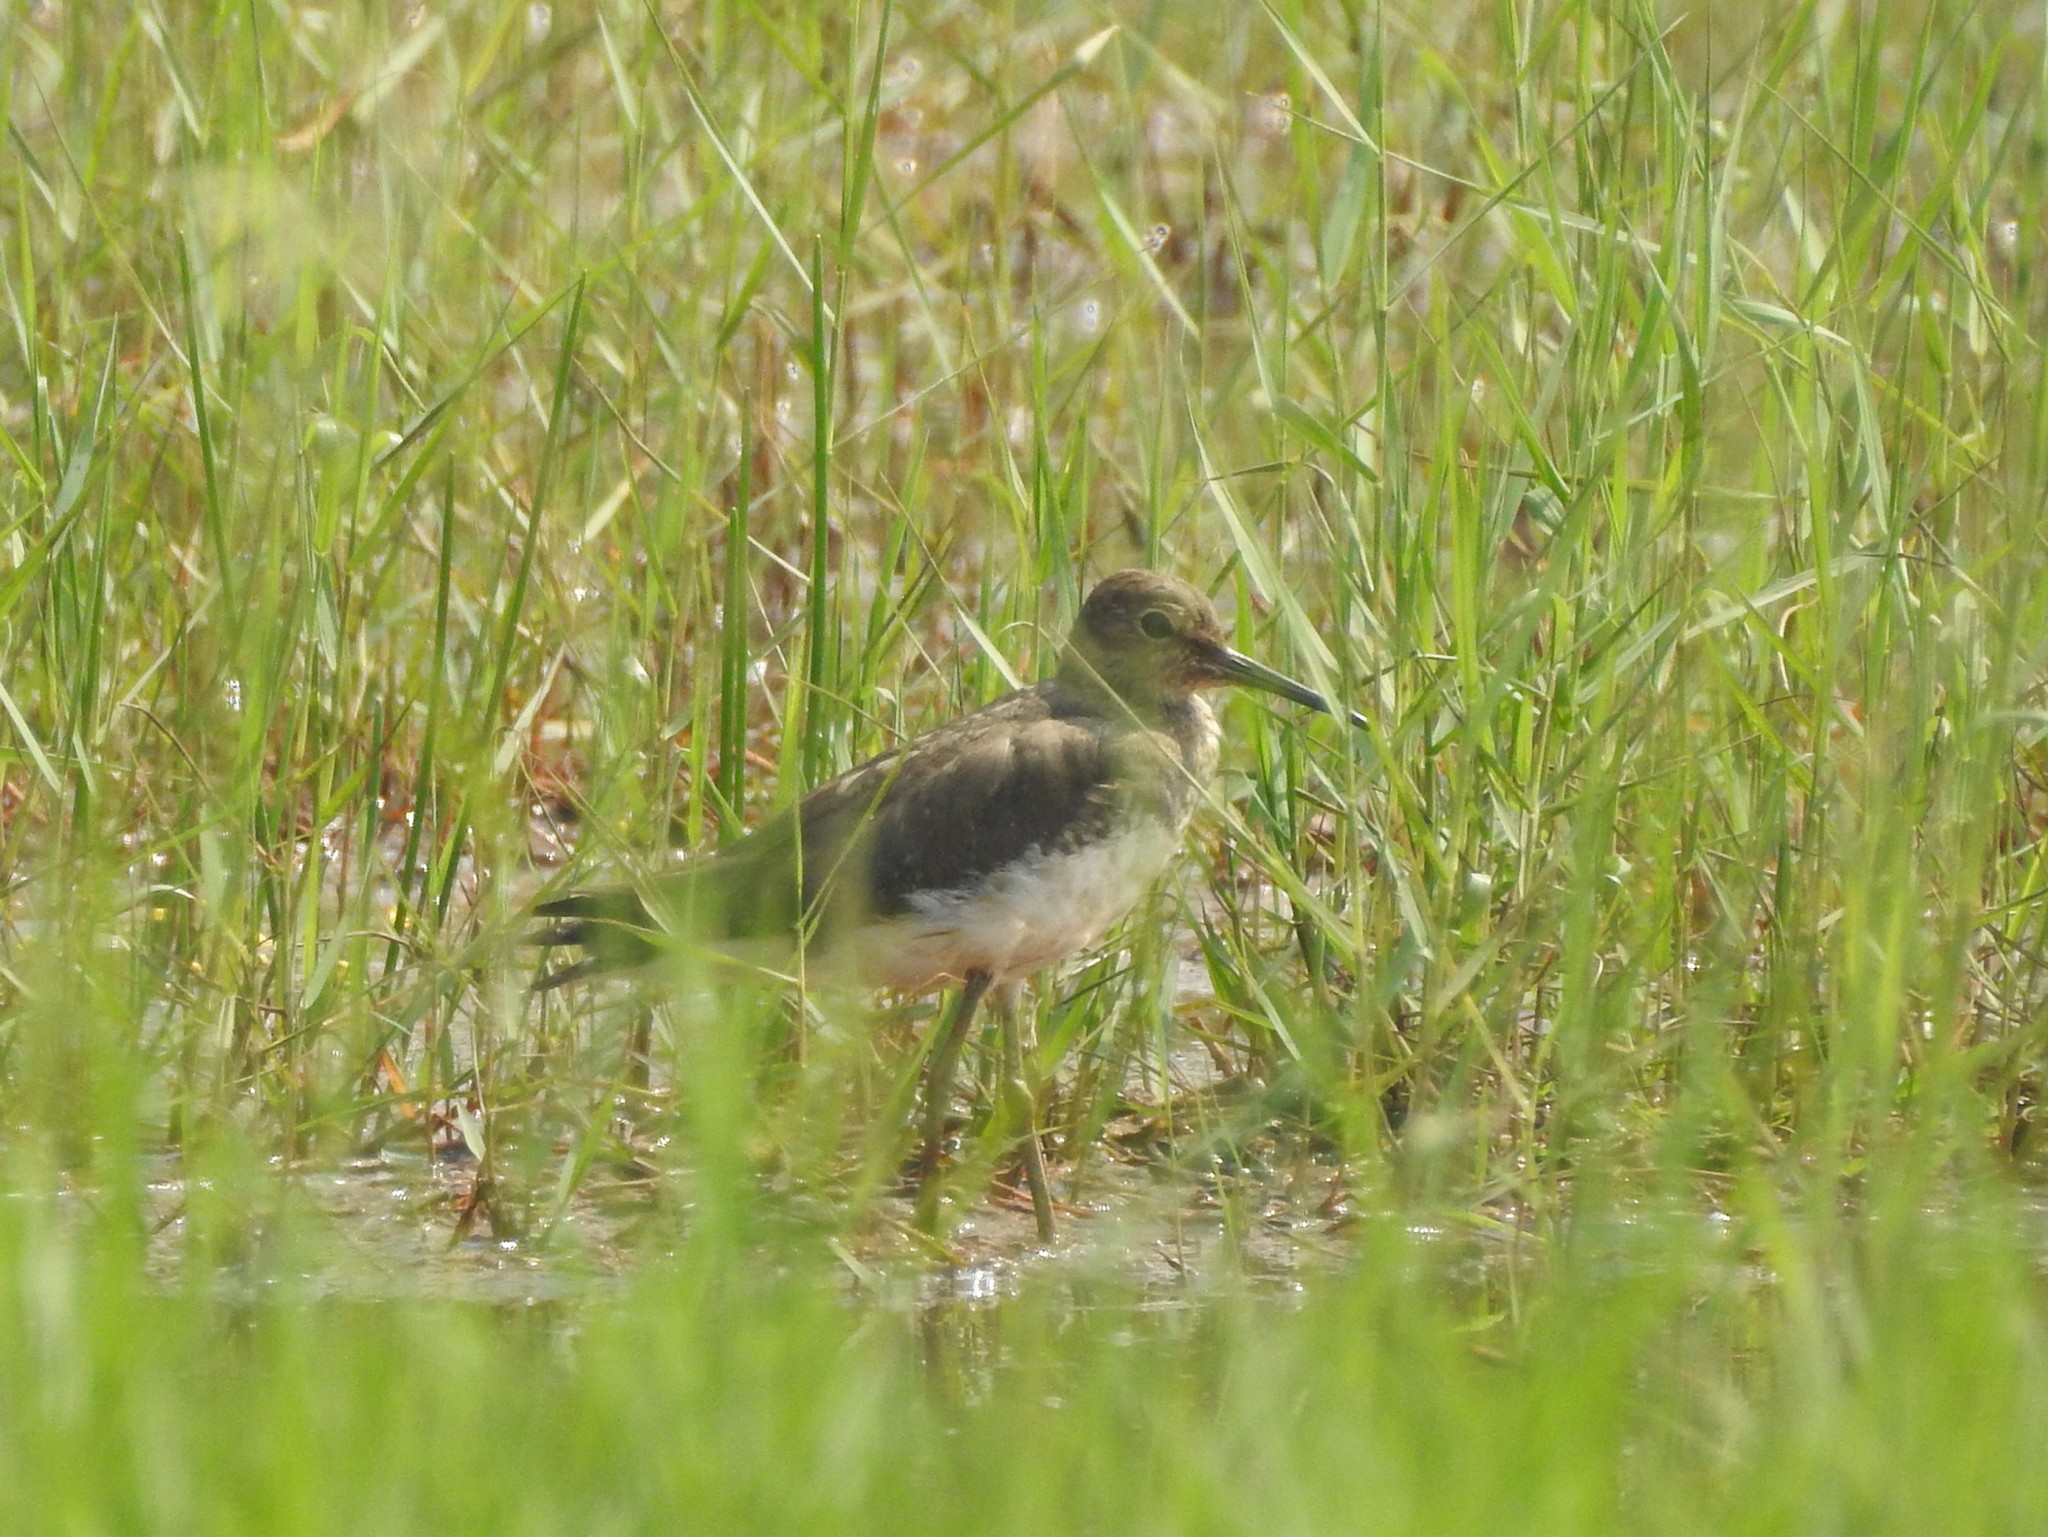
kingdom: Animalia
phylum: Chordata
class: Aves
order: Charadriiformes
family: Scolopacidae
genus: Tringa
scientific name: Tringa ochropus
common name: Green sandpiper
